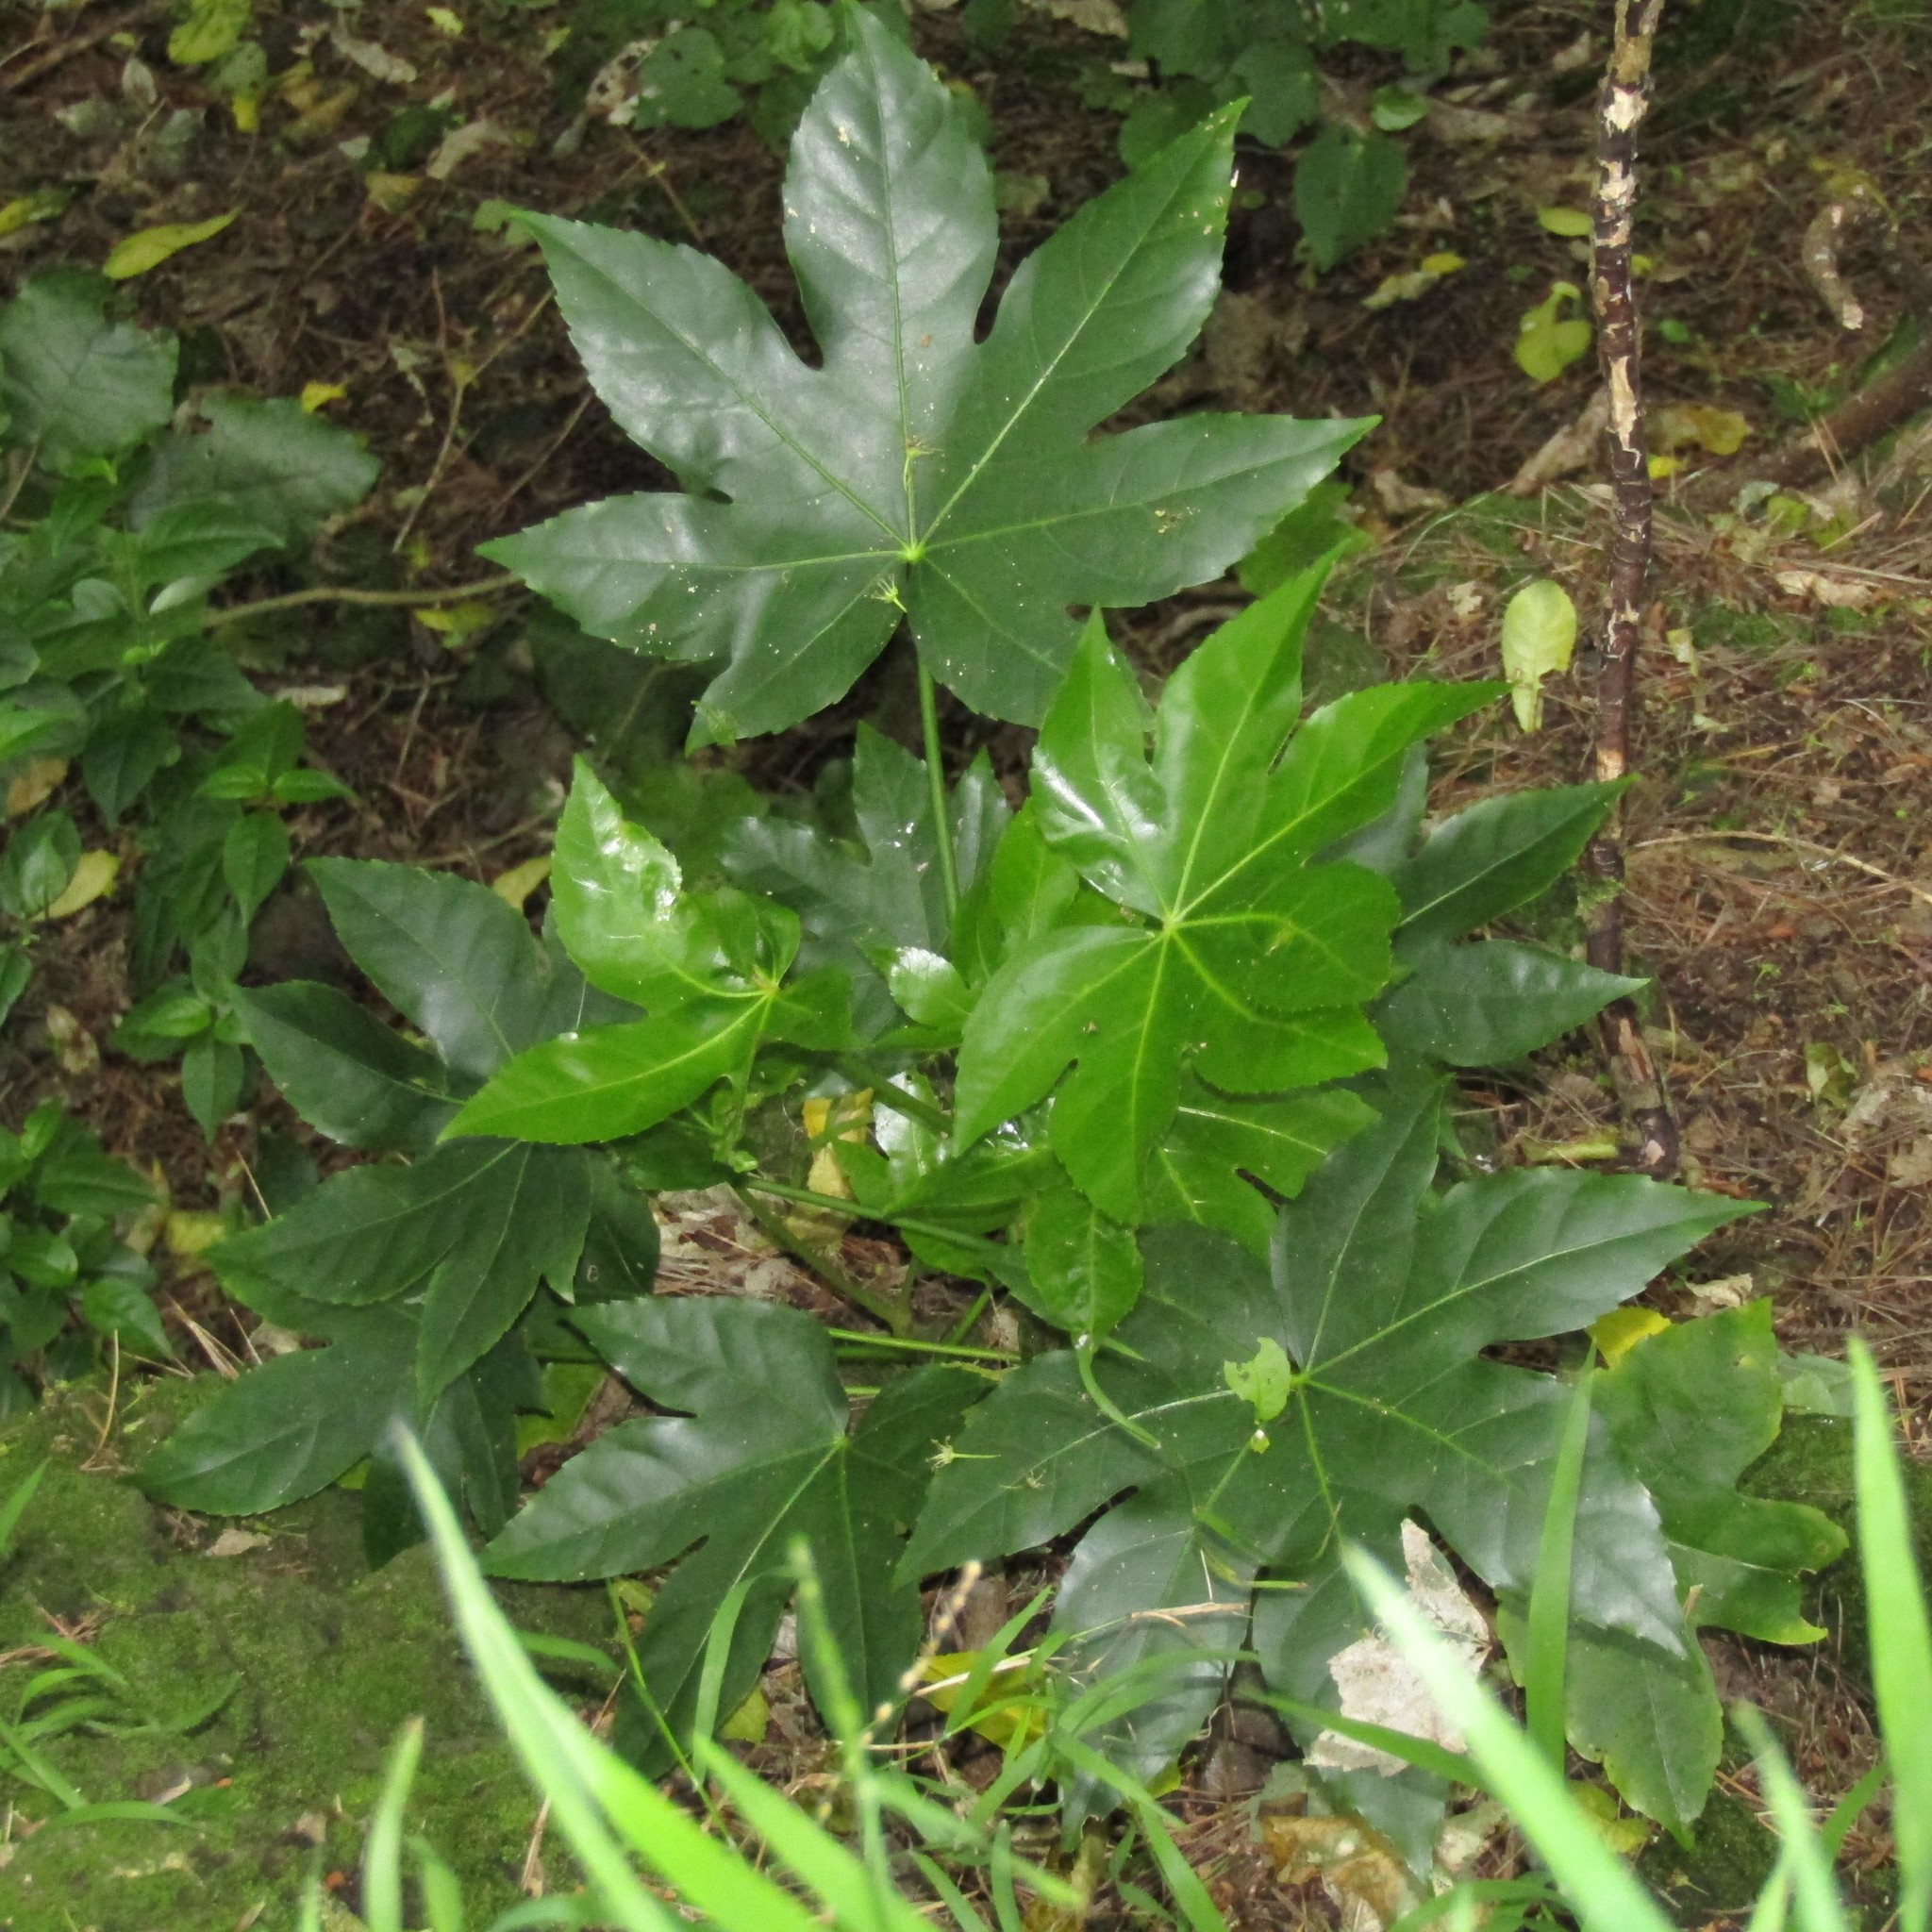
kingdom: Plantae
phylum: Tracheophyta
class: Magnoliopsida
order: Apiales
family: Araliaceae
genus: Fatsia
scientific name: Fatsia japonica
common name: Fatsia
